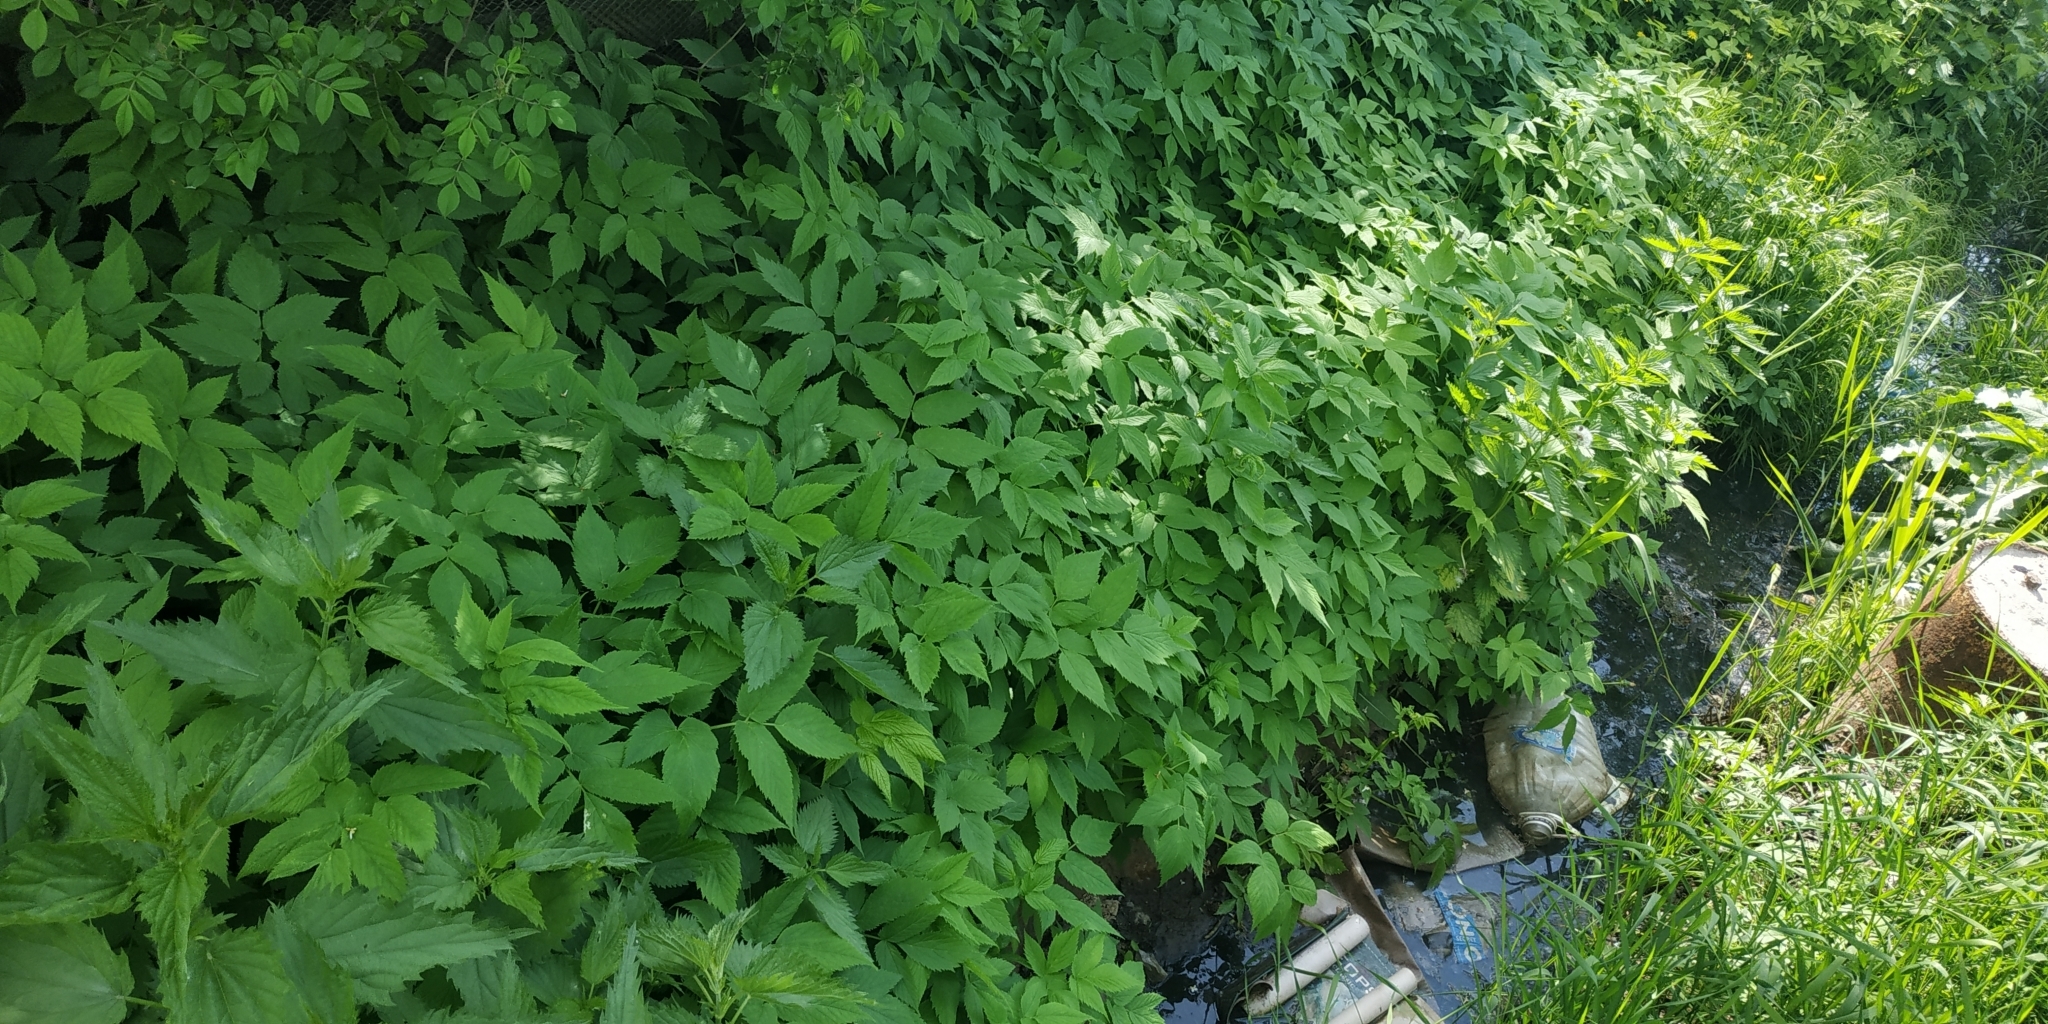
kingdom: Plantae
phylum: Tracheophyta
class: Magnoliopsida
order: Apiales
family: Apiaceae
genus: Aegopodium
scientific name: Aegopodium podagraria
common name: Ground-elder
